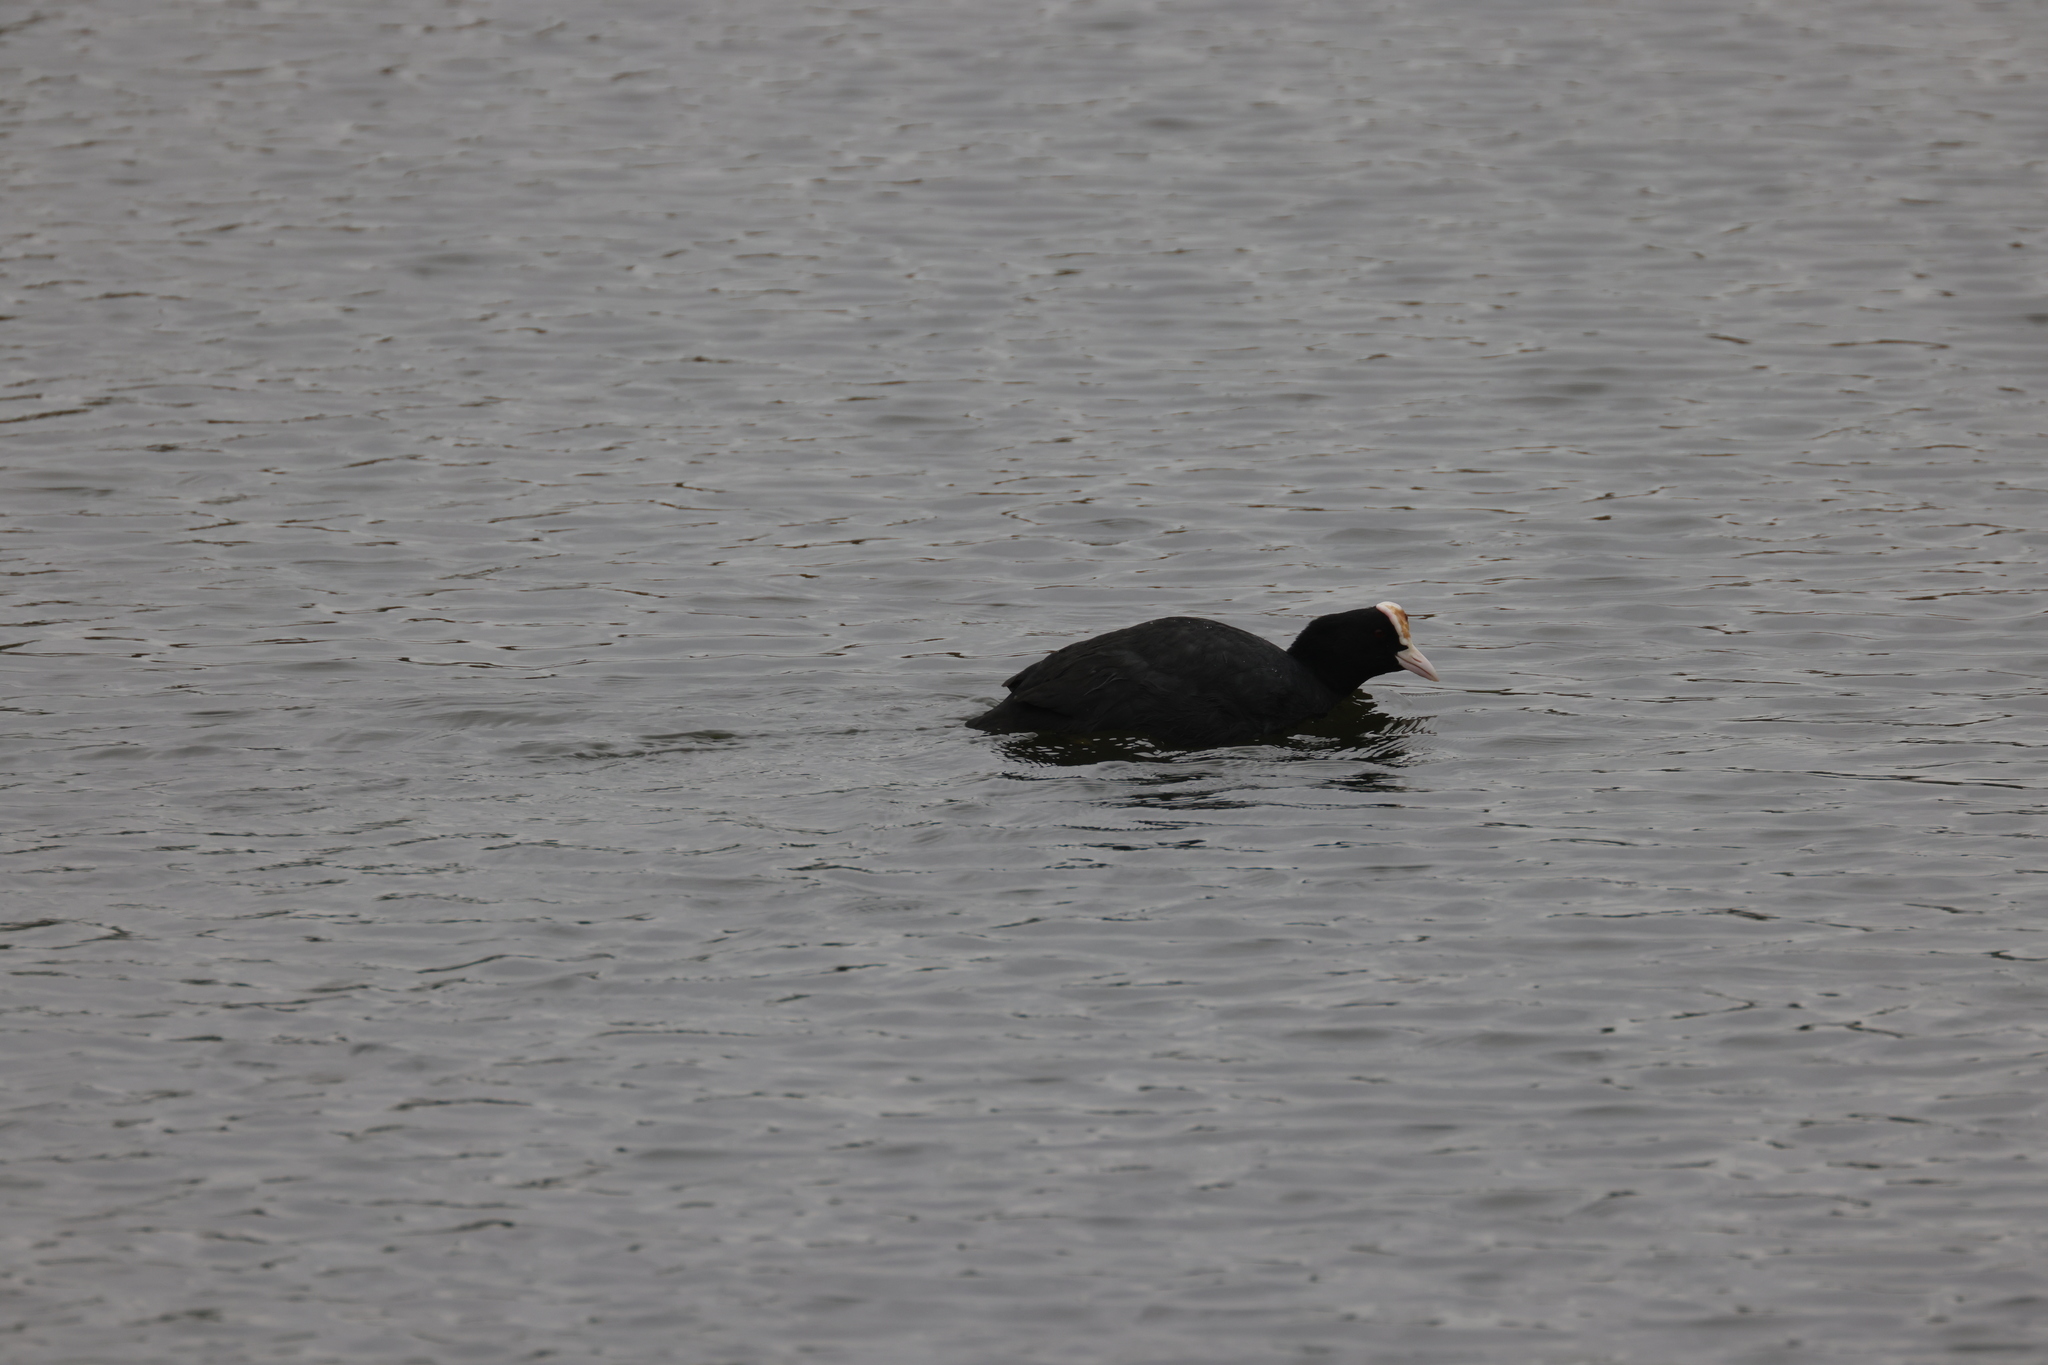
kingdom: Animalia
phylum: Chordata
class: Aves
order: Gruiformes
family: Rallidae
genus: Fulica
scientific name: Fulica atra
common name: Eurasian coot
